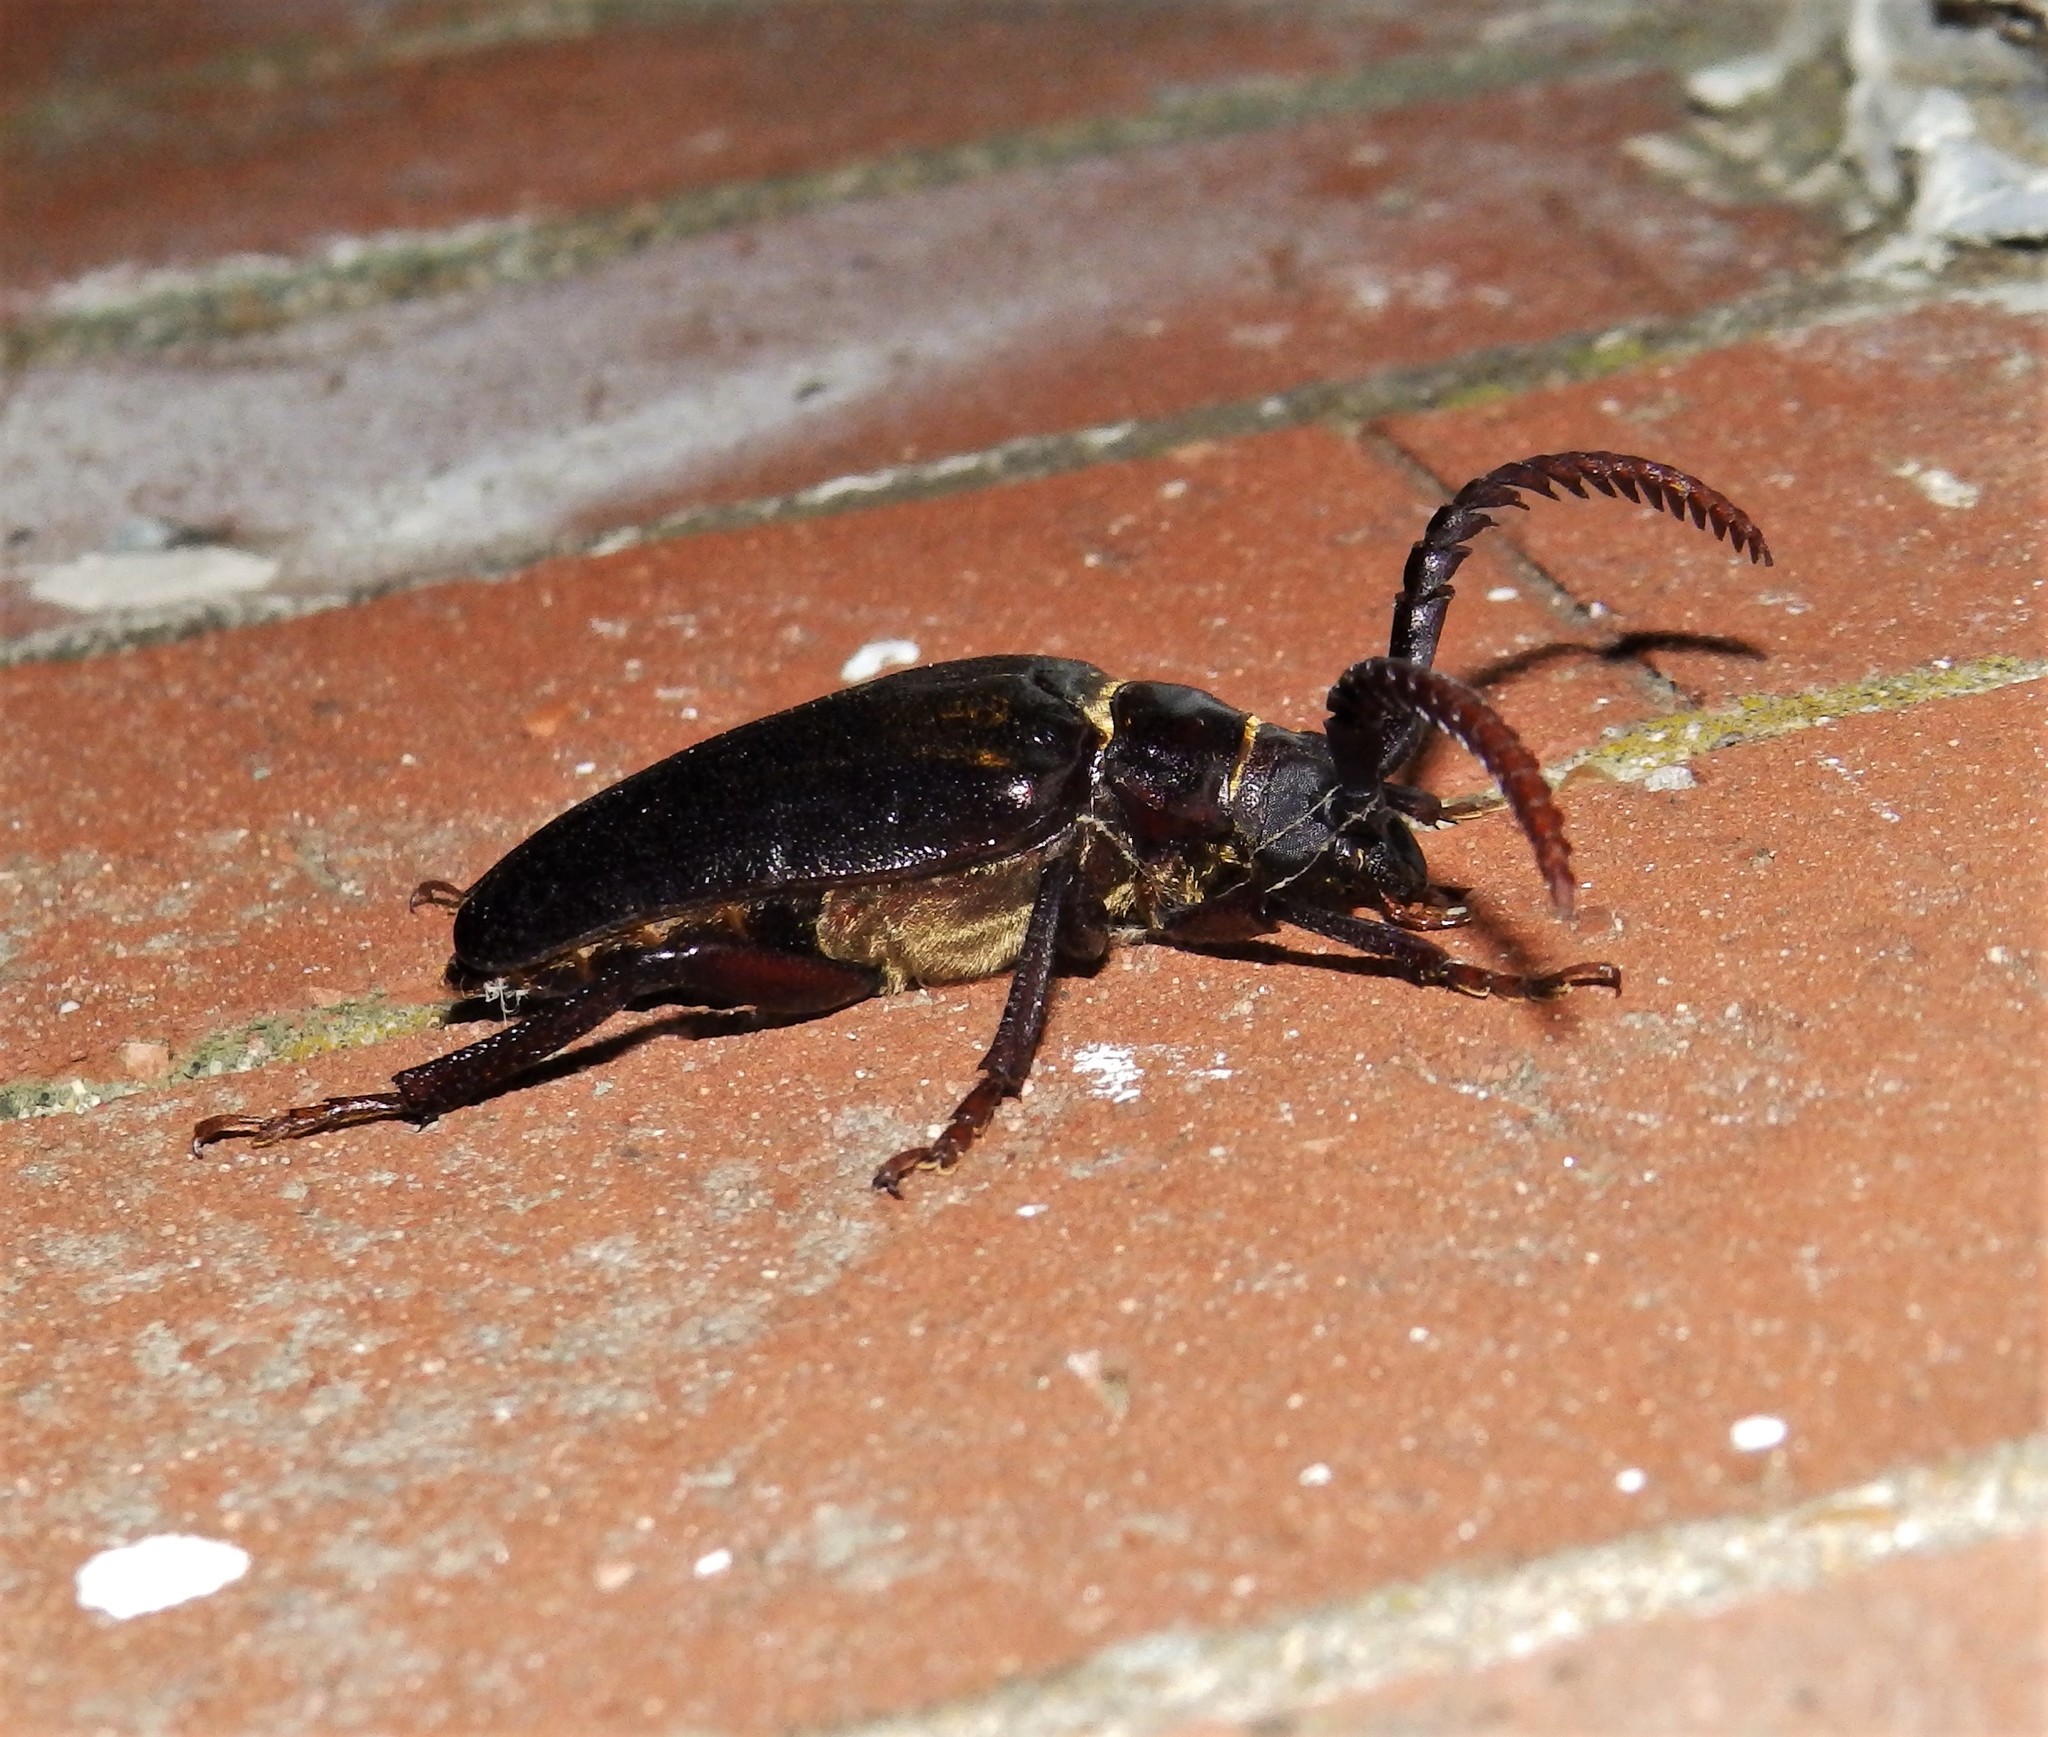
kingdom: Animalia
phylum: Arthropoda
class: Insecta
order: Coleoptera
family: Cerambycidae
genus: Prionus
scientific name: Prionus imbricornis
